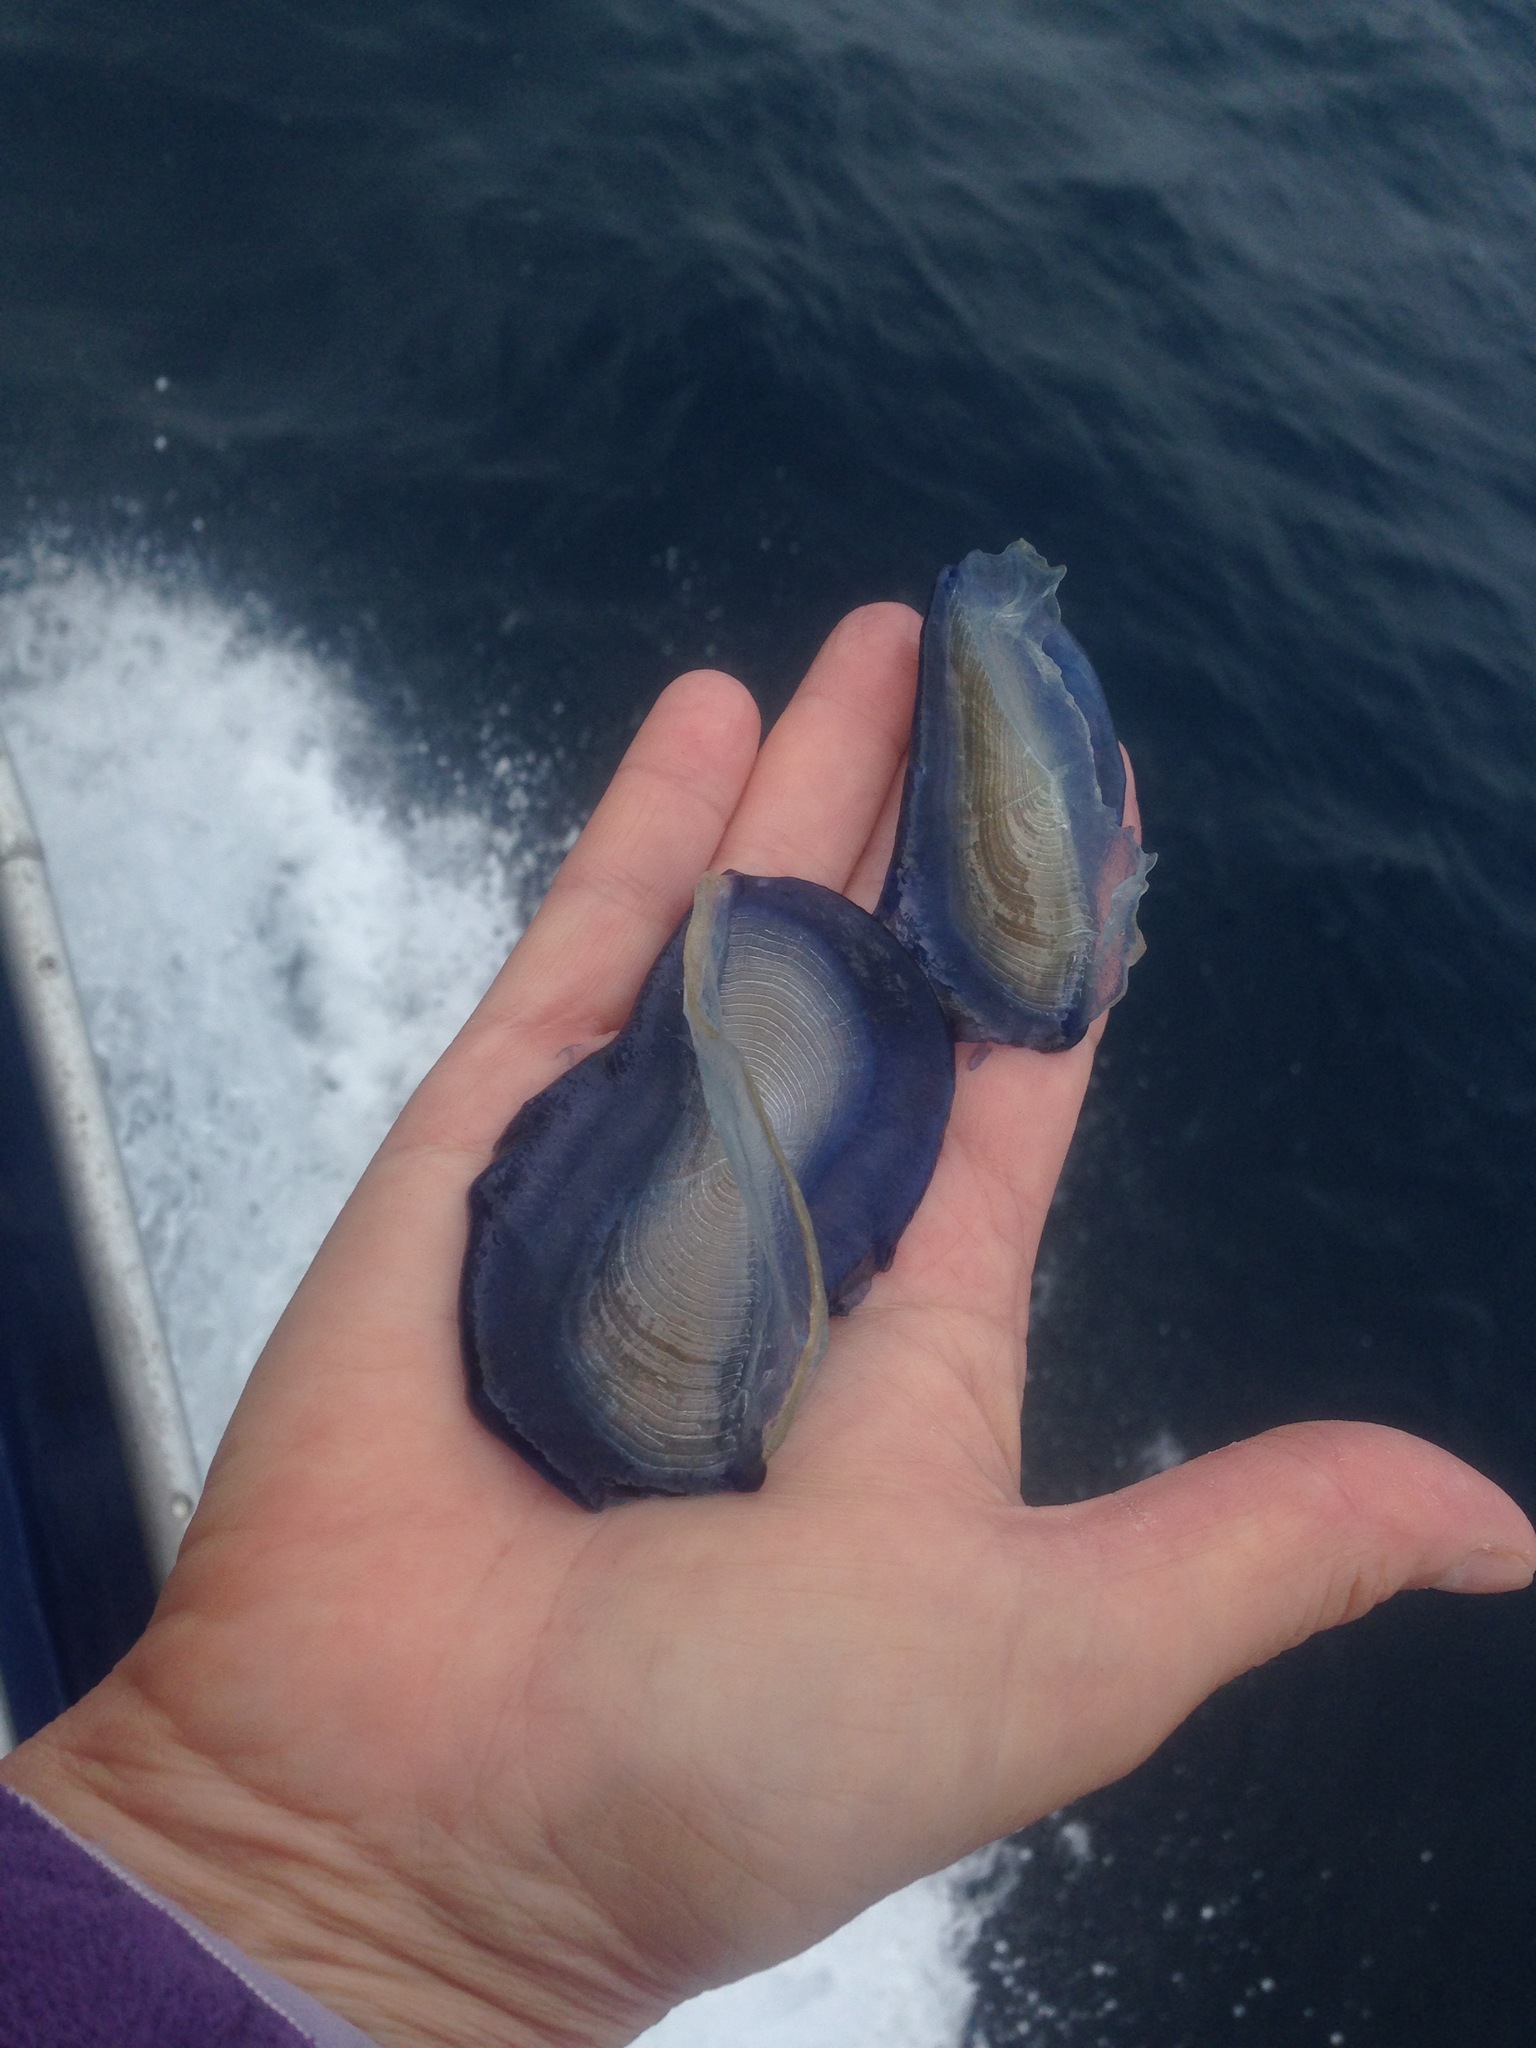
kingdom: Animalia
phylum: Cnidaria
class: Hydrozoa
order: Anthoathecata
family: Porpitidae
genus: Velella
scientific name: Velella velella
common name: By-the-wind-sailor
